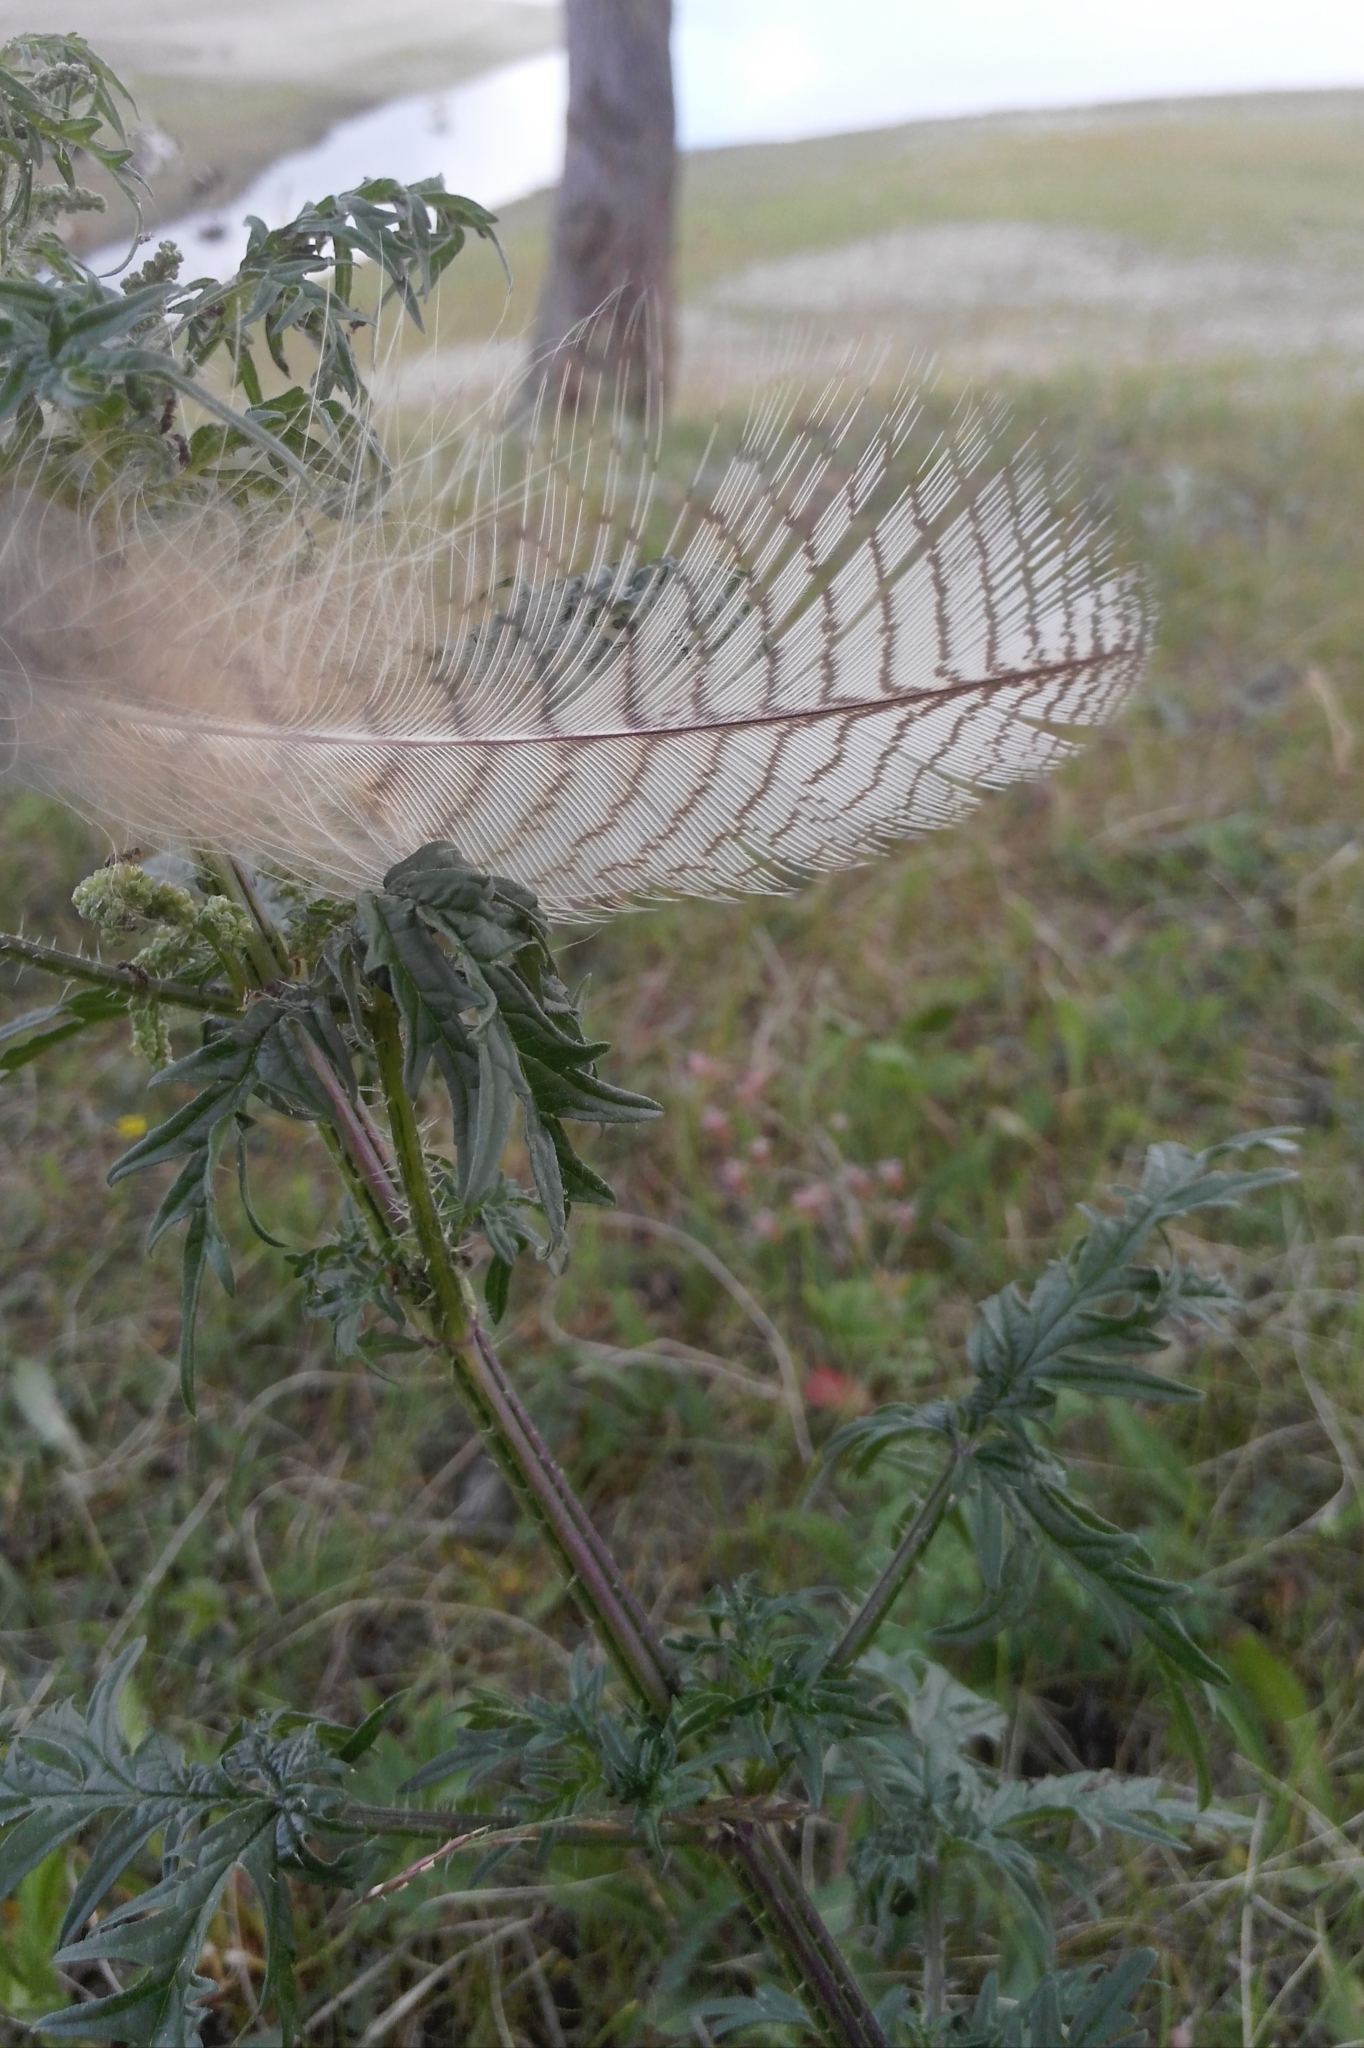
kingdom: Plantae
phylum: Tracheophyta
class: Magnoliopsida
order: Rosales
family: Urticaceae
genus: Urtica
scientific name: Urtica cannabina
